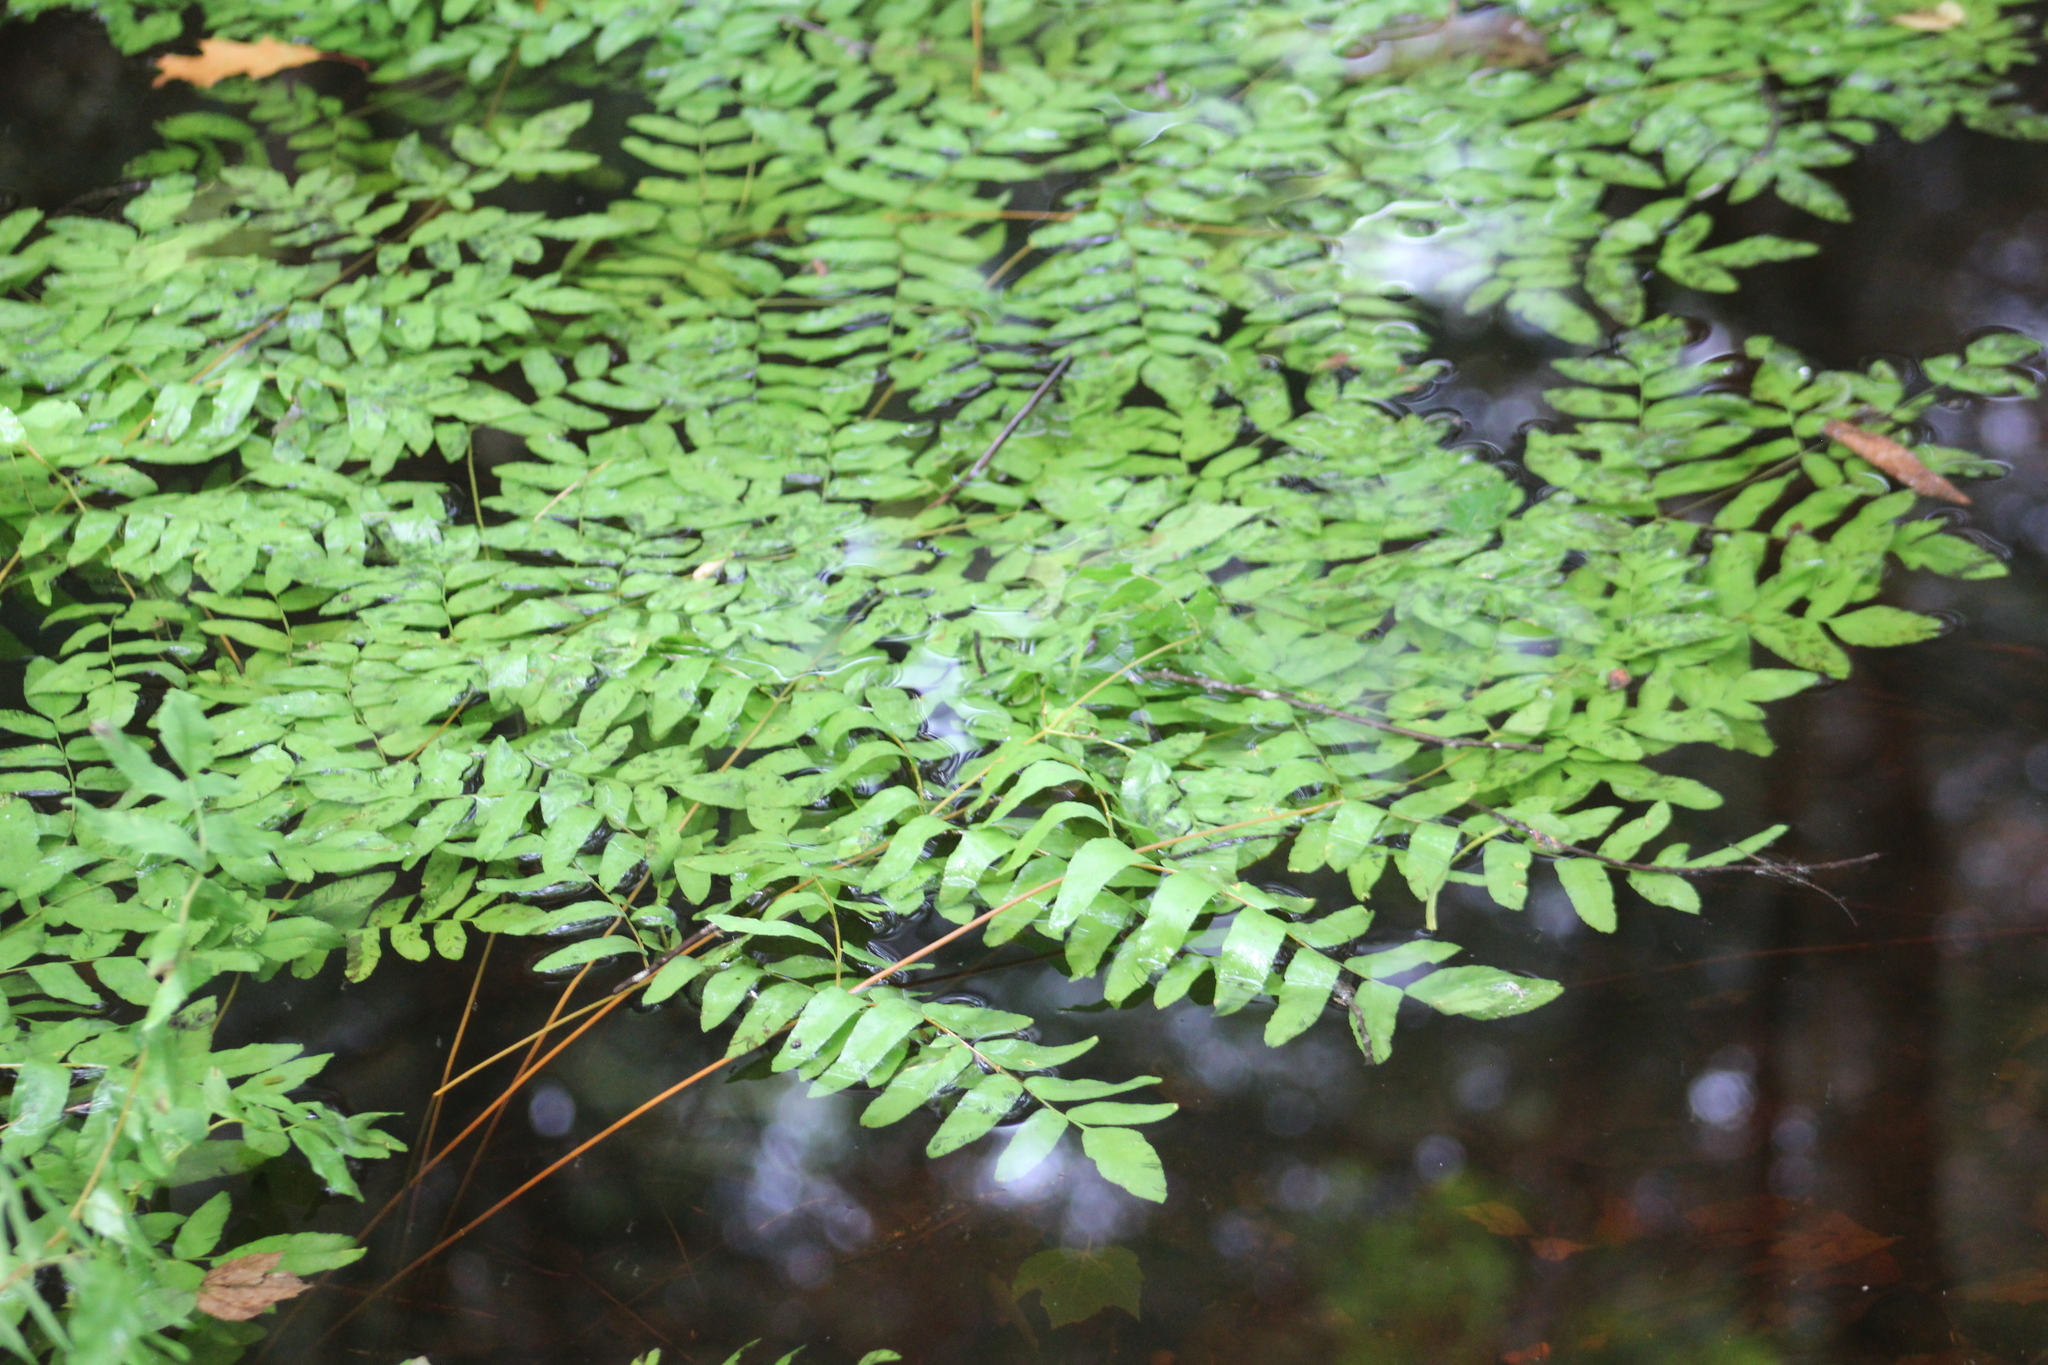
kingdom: Plantae
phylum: Tracheophyta
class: Polypodiopsida
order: Osmundales
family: Osmundaceae
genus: Osmunda
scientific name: Osmunda spectabilis
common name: American royal fern
